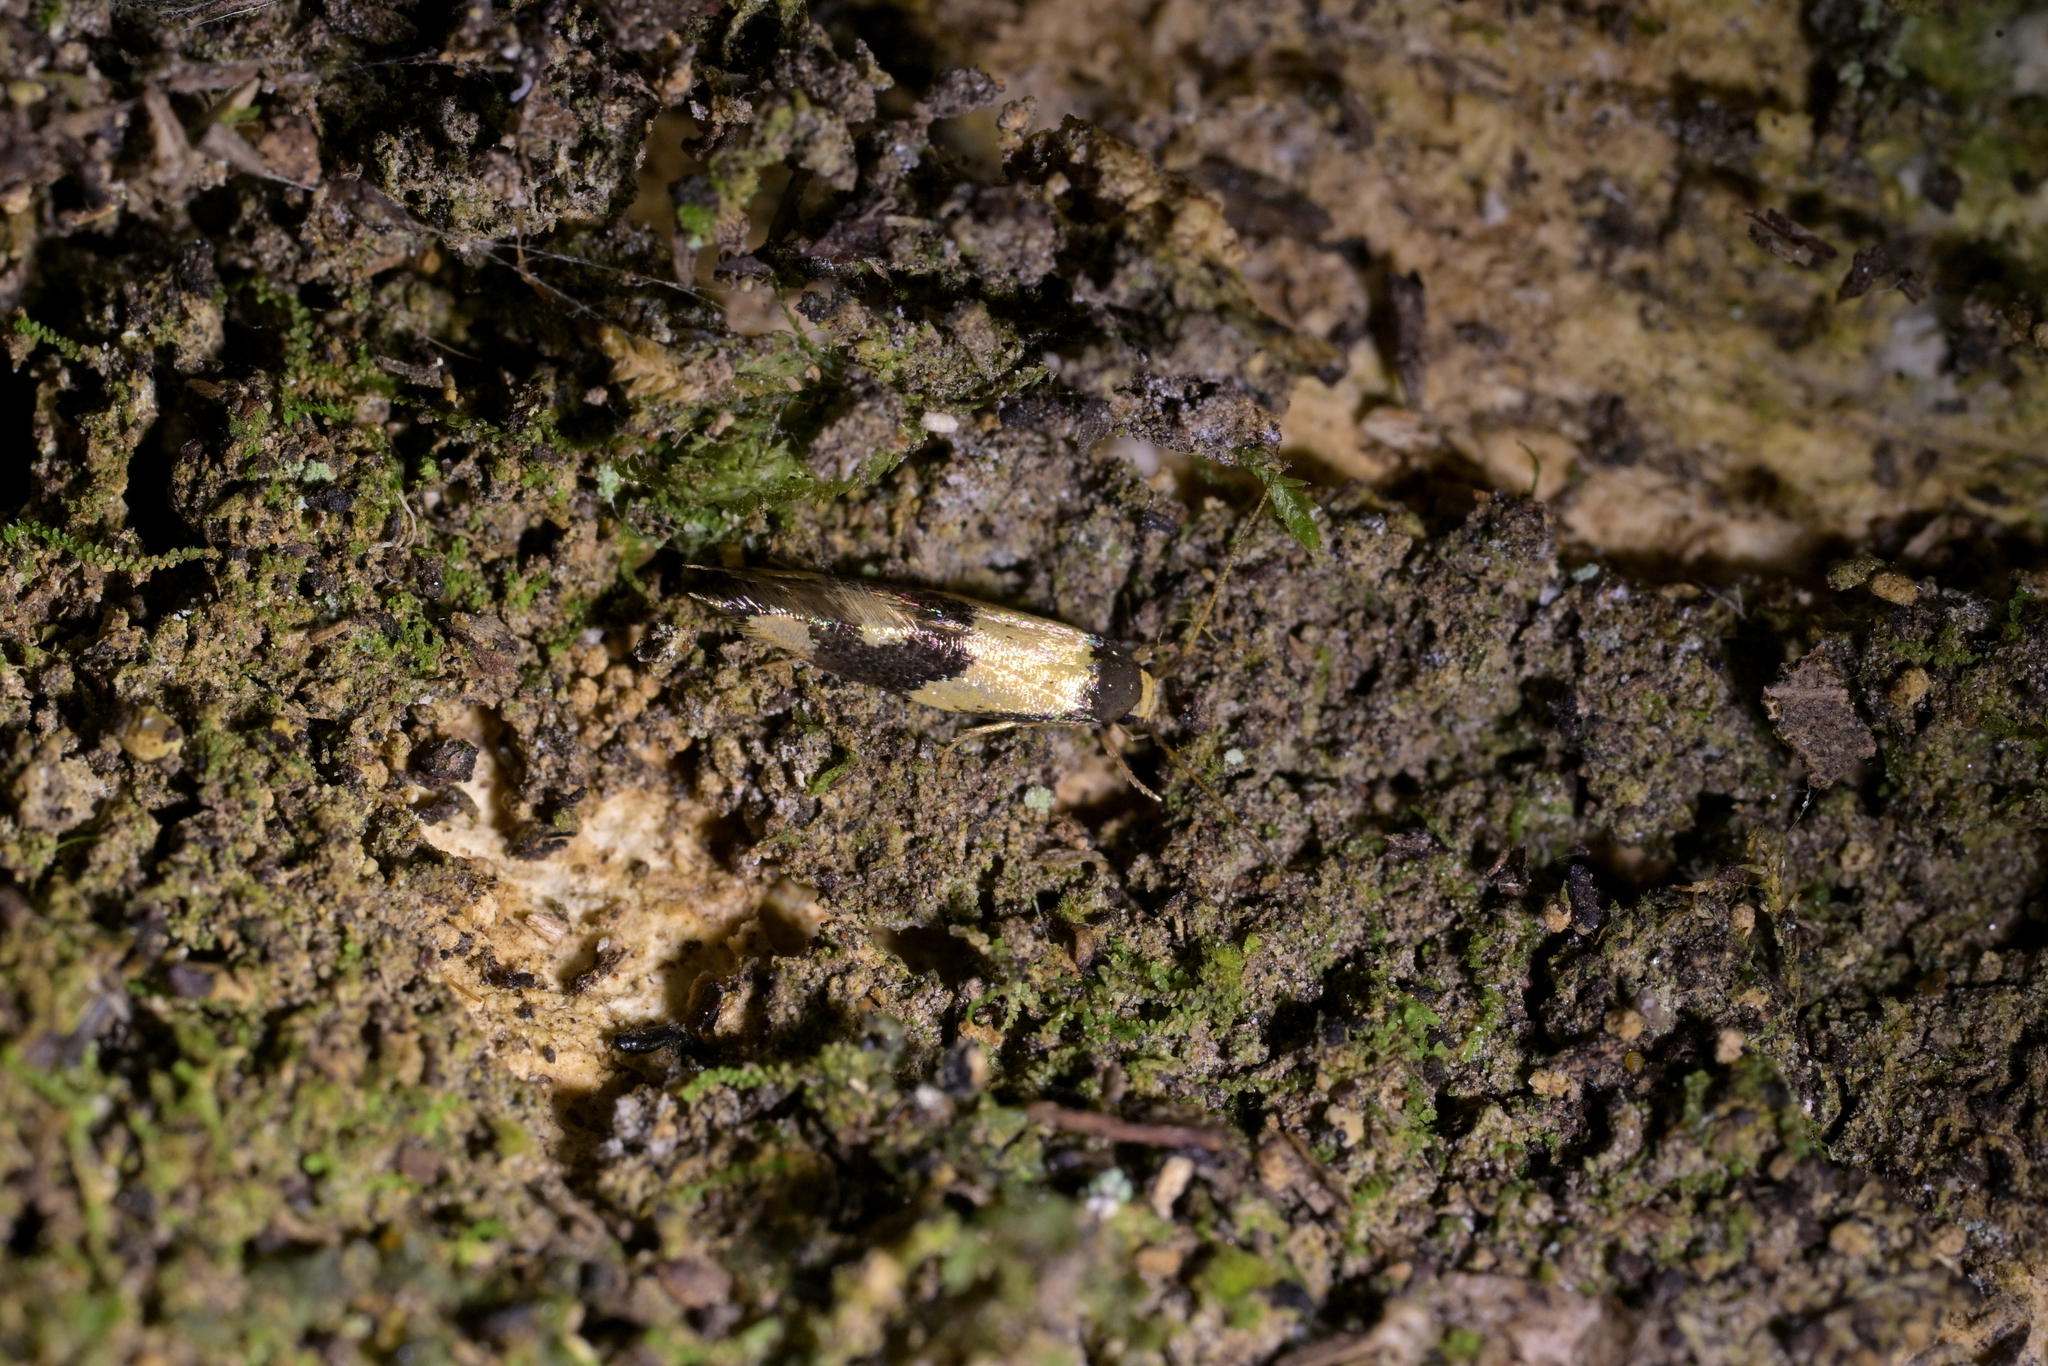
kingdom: Animalia
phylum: Arthropoda
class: Insecta
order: Lepidoptera
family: Tineidae
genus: Opogona
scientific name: Opogona comptella
